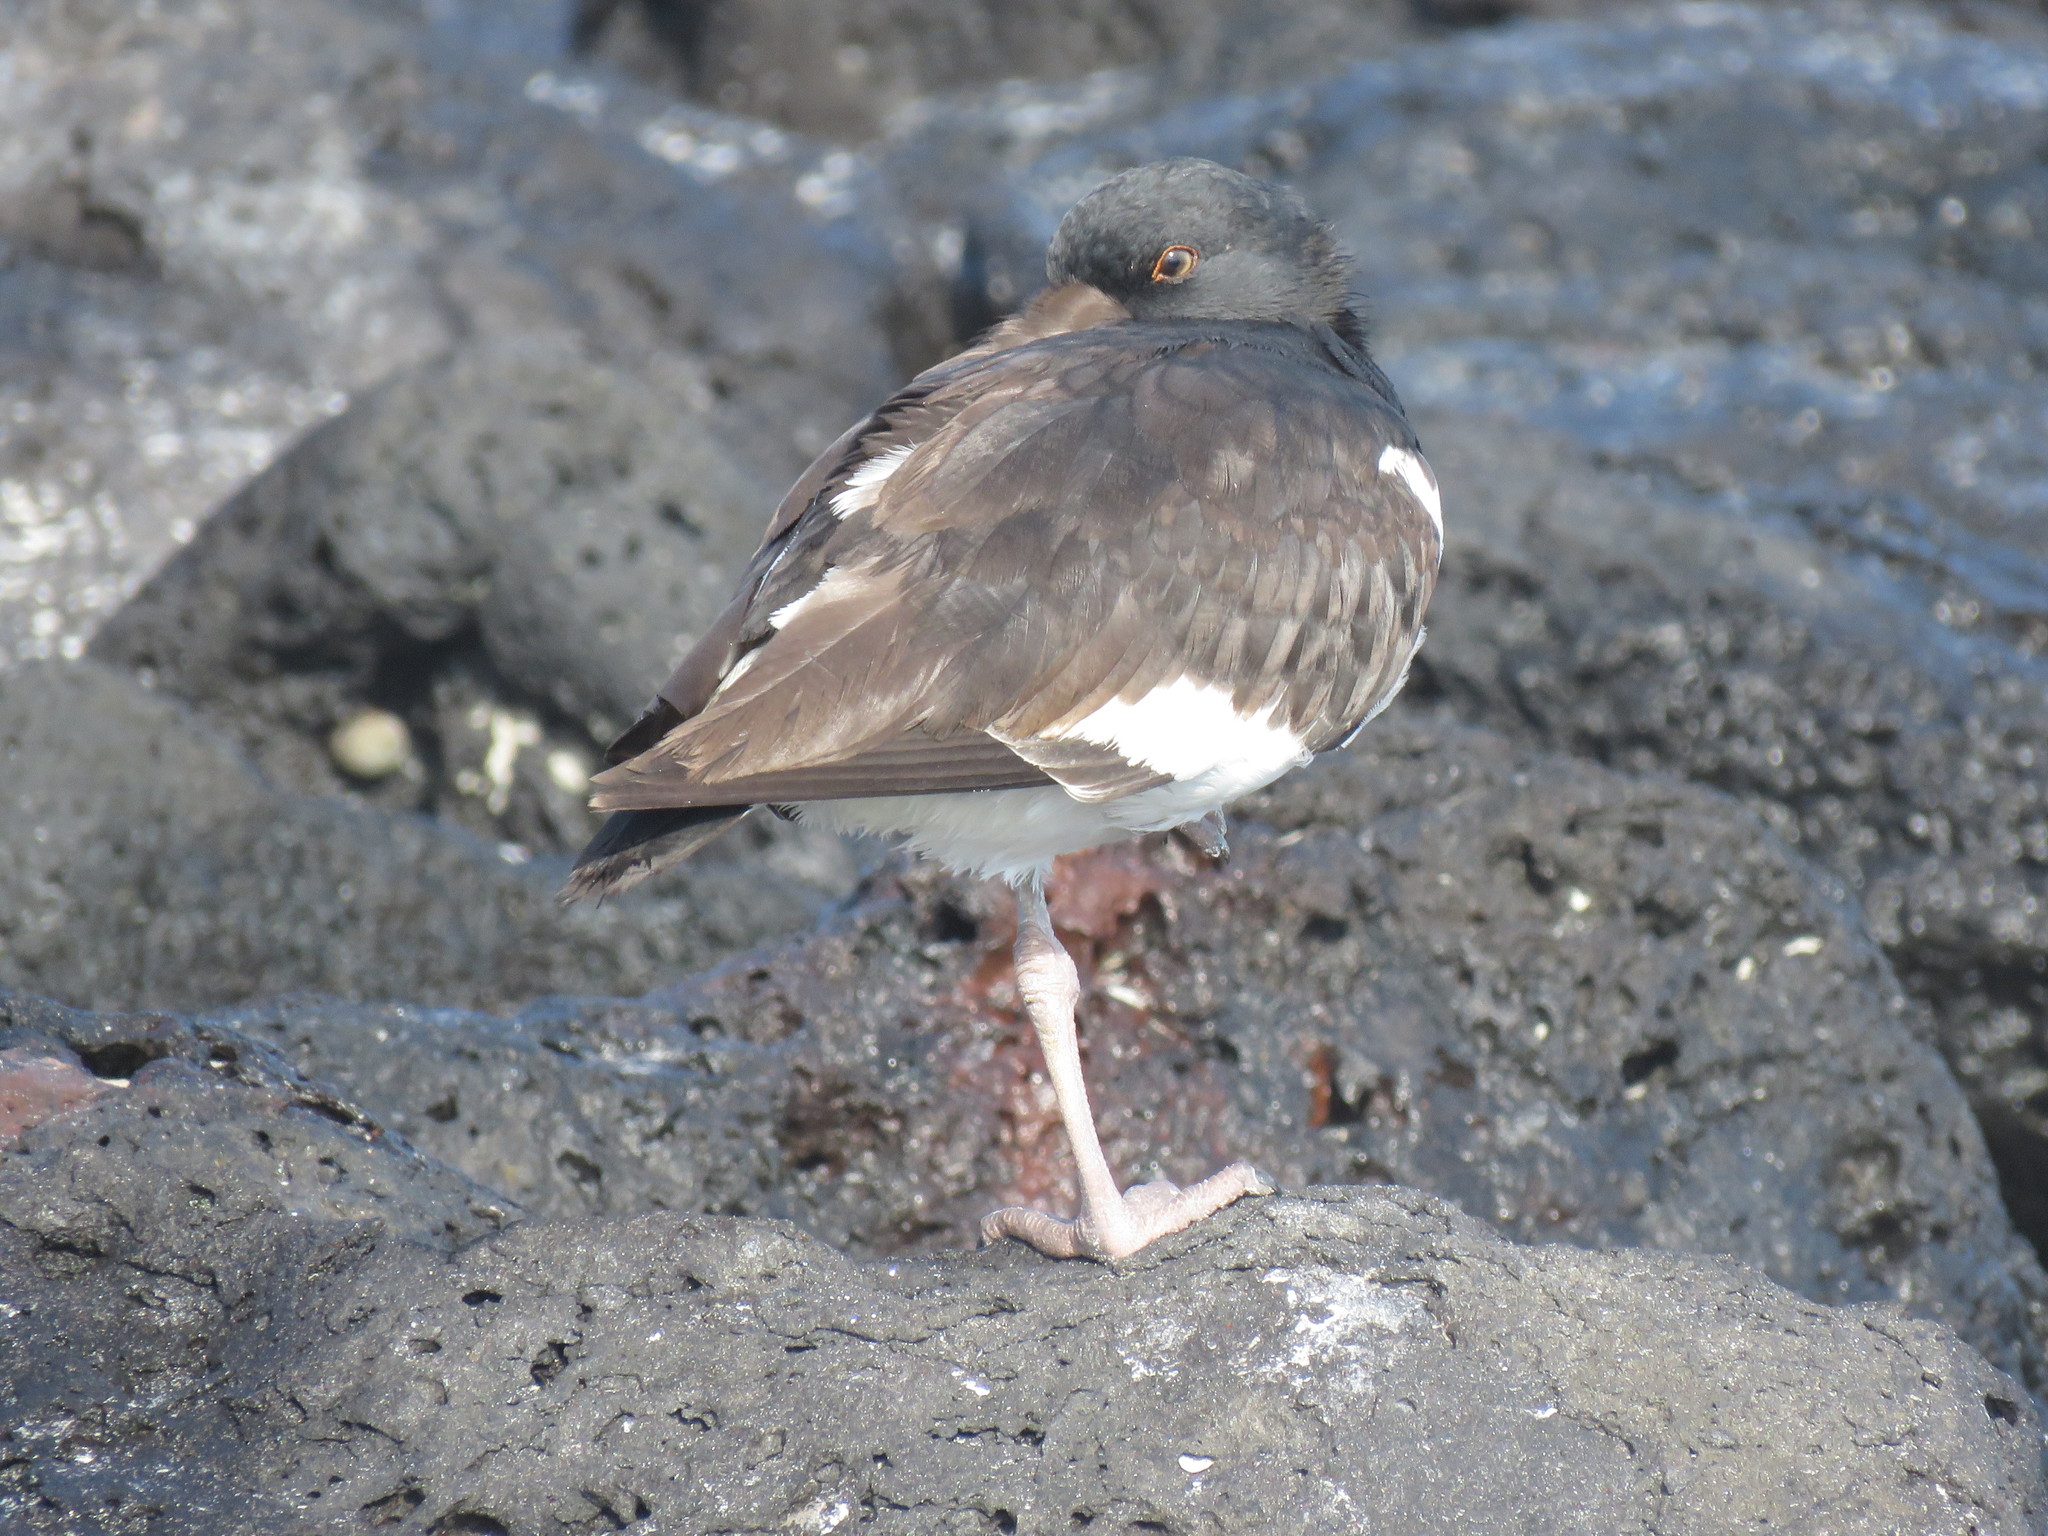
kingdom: Animalia
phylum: Chordata
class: Aves
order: Charadriiformes
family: Haematopodidae
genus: Haematopus
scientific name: Haematopus palliatus
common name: American oystercatcher
